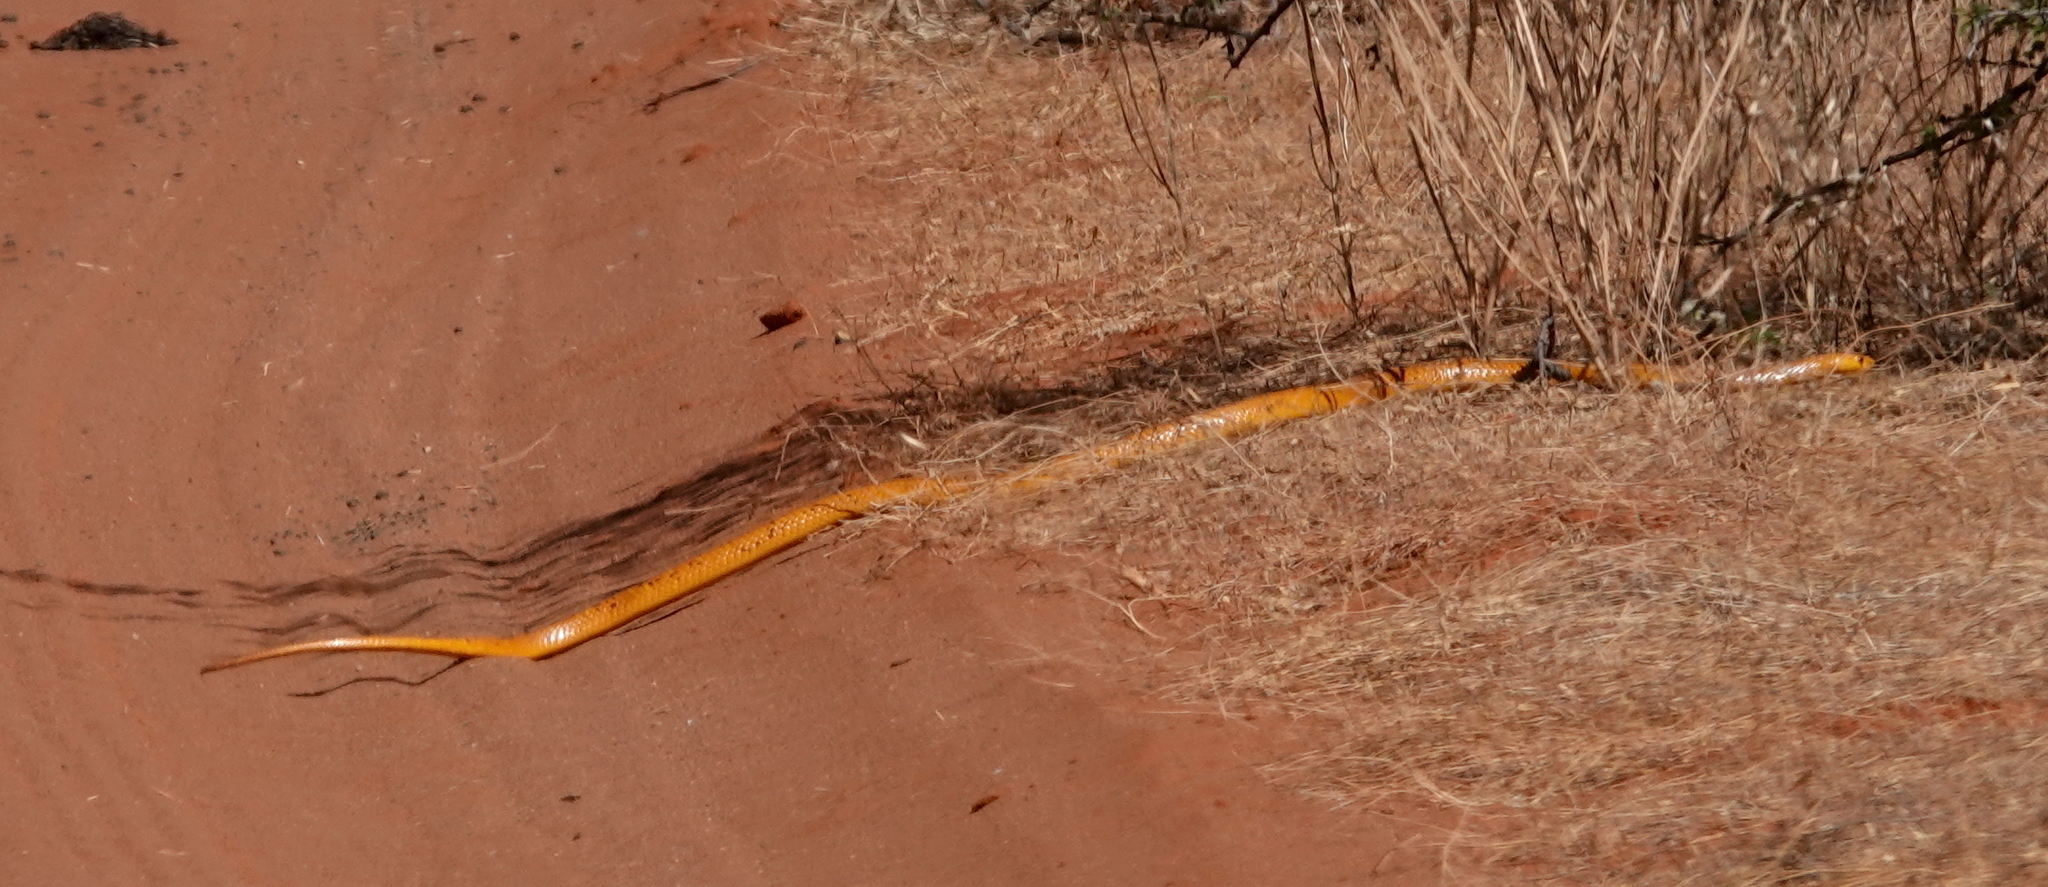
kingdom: Animalia
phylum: Chordata
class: Squamata
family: Elapidae
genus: Naja
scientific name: Naja nivea
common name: Cape cobra
